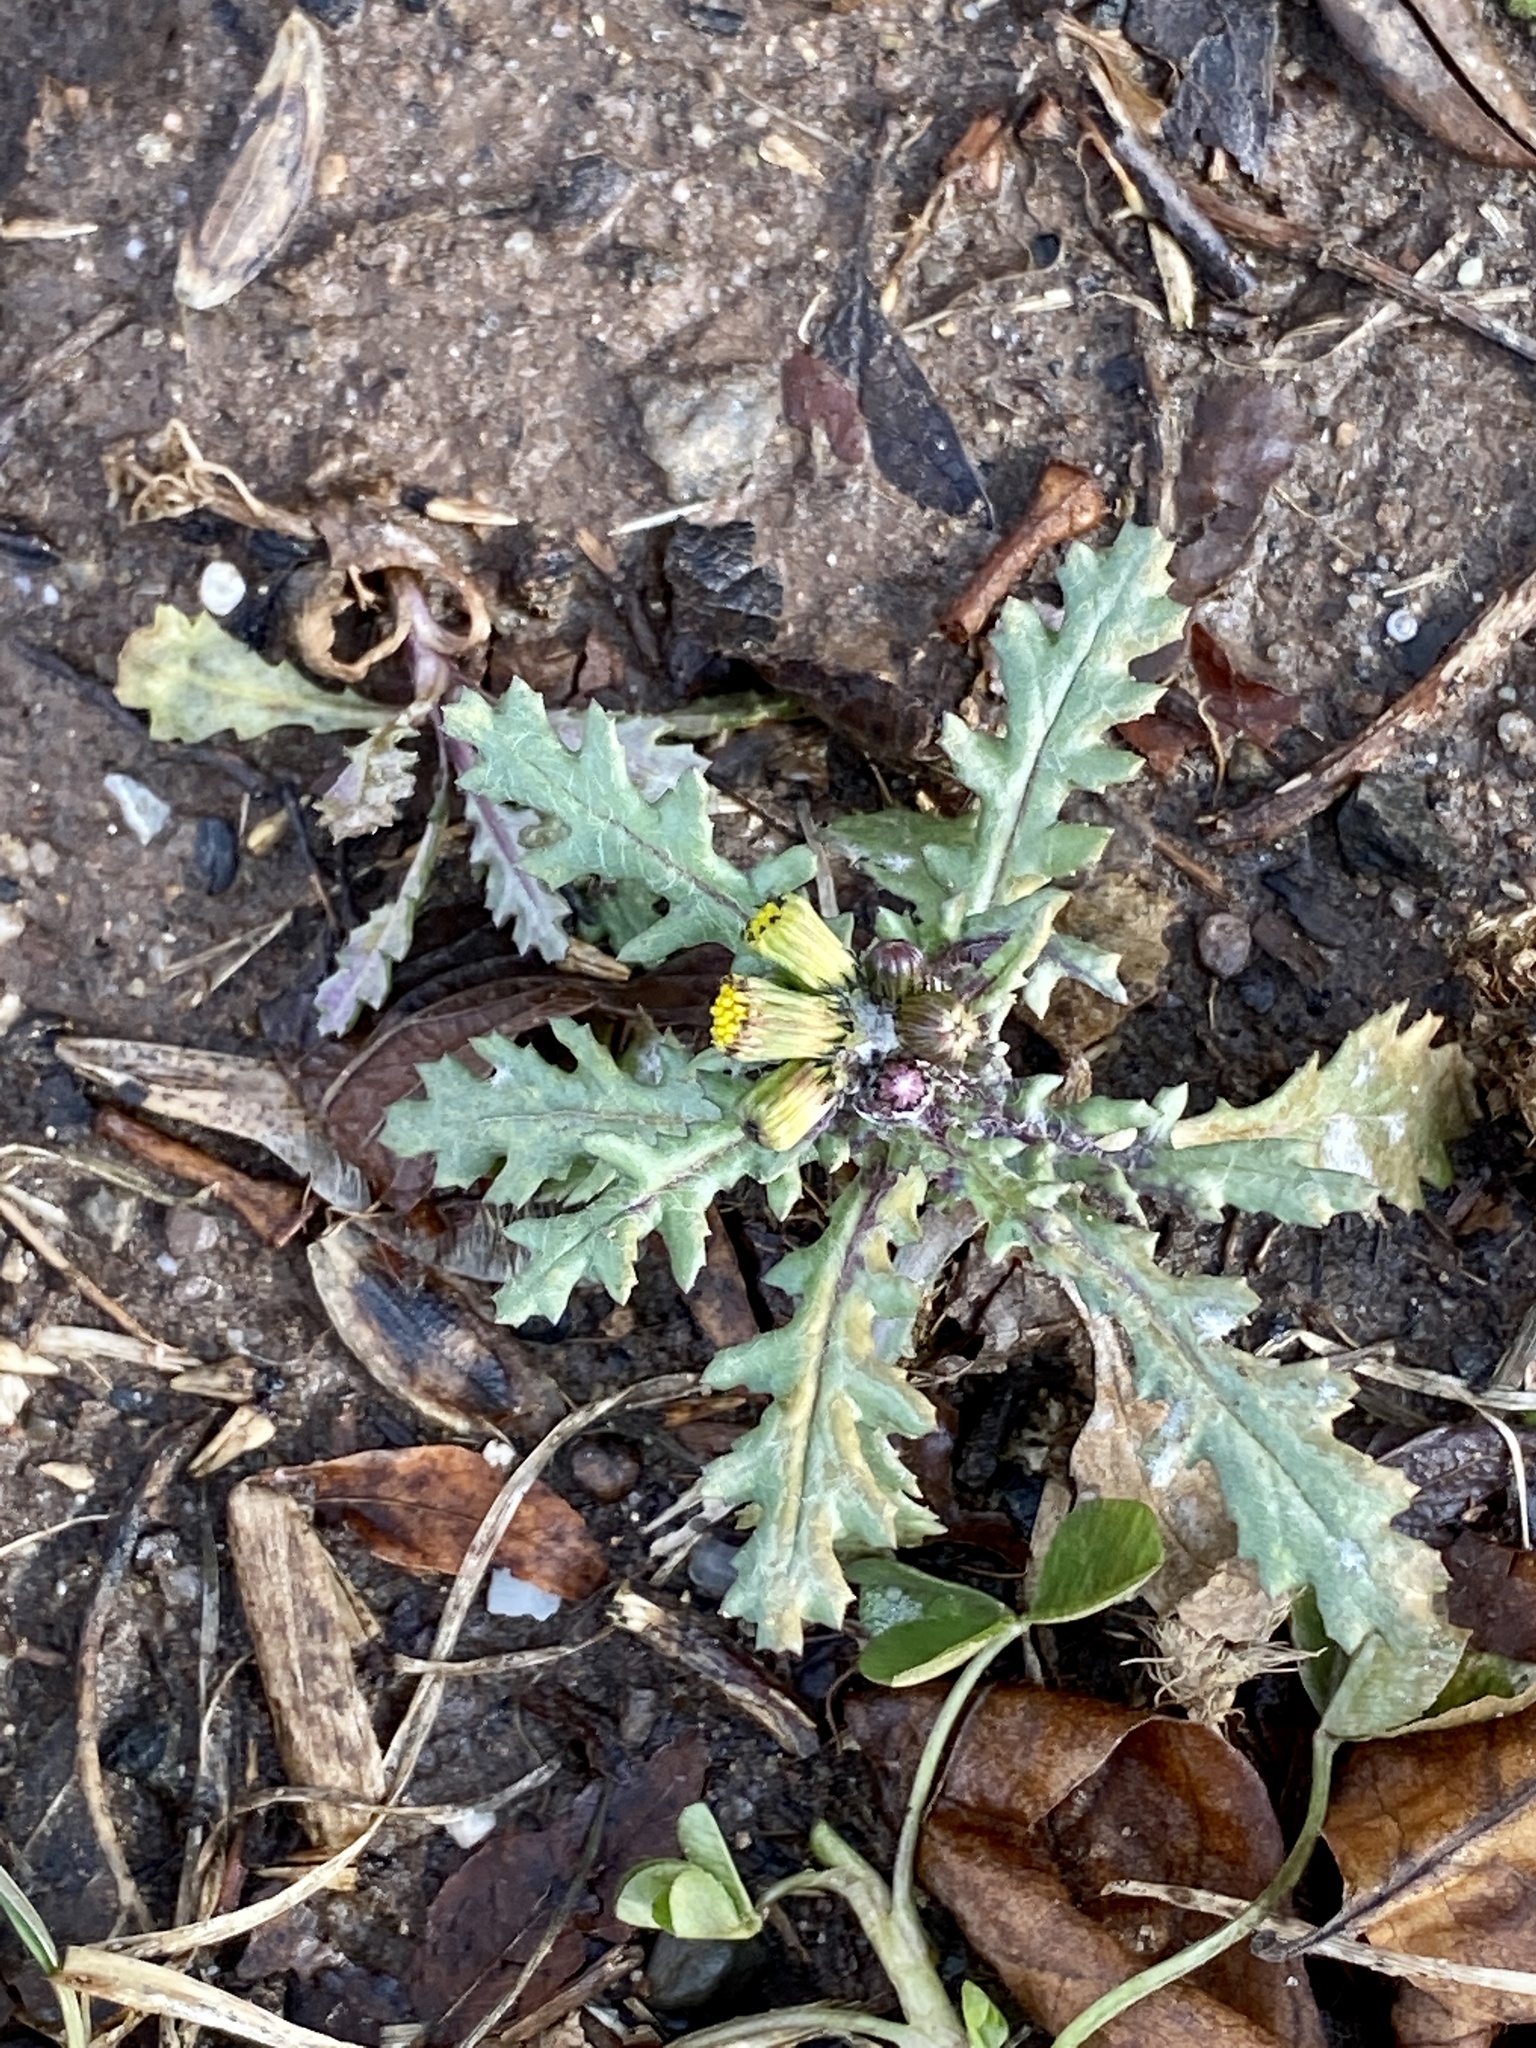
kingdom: Plantae
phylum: Tracheophyta
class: Magnoliopsida
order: Asterales
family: Asteraceae
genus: Senecio
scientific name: Senecio vulgaris
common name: Old-man-in-the-spring
